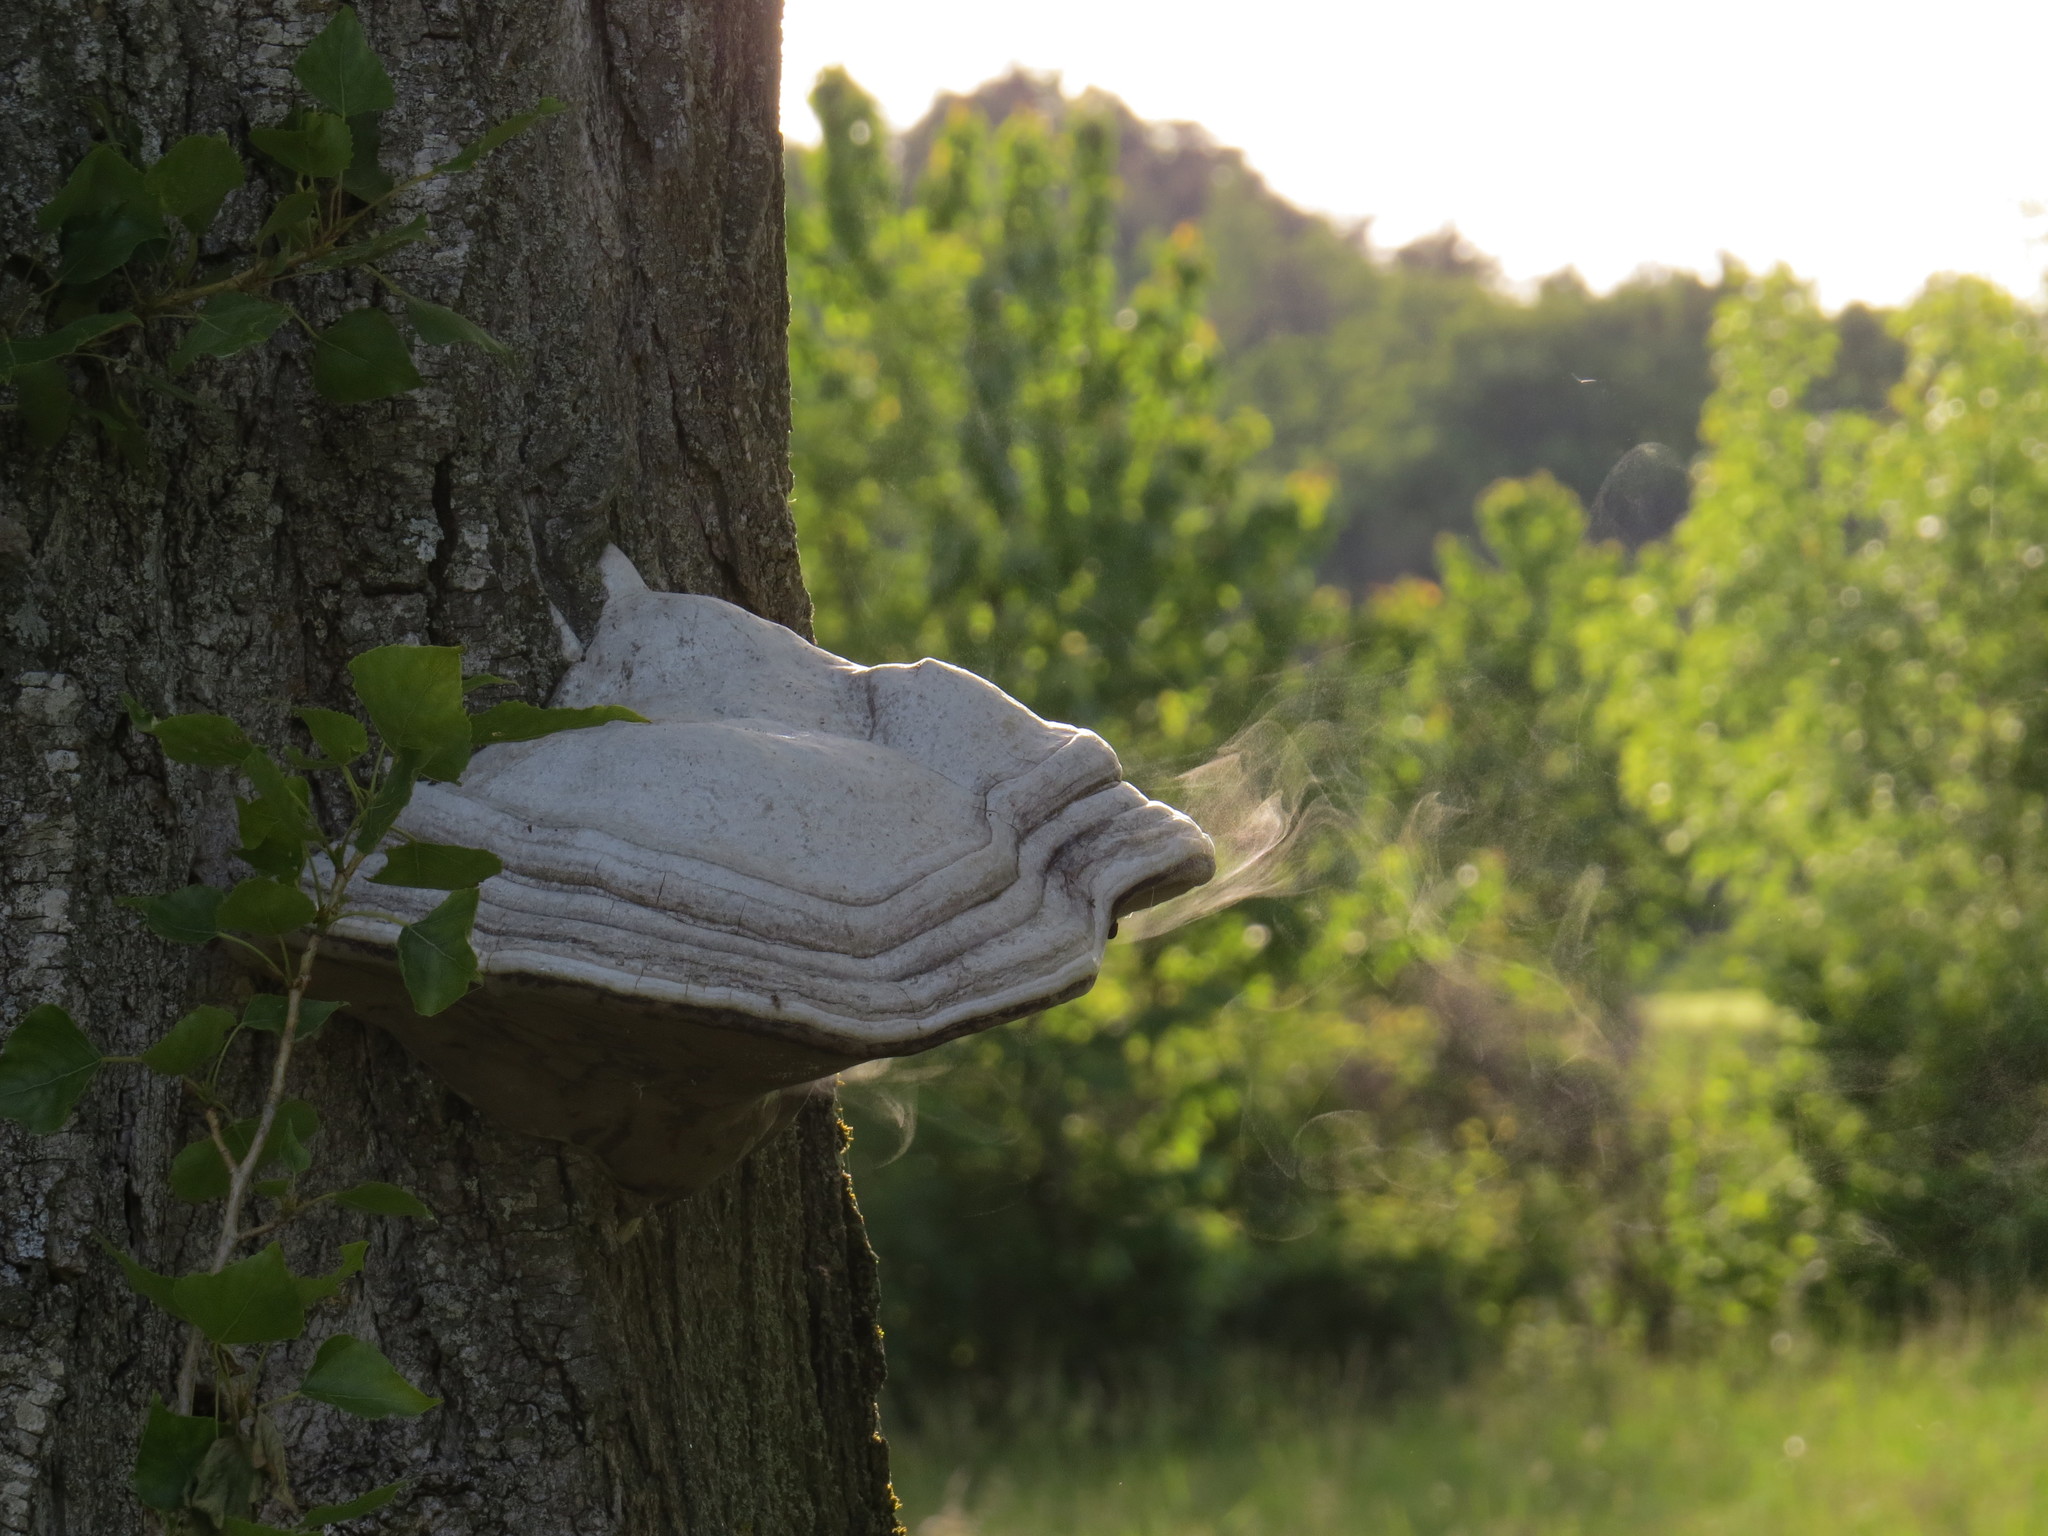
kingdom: Fungi
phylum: Basidiomycota
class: Agaricomycetes
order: Polyporales
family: Polyporaceae
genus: Fomes
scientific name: Fomes fomentarius
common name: Hoof fungus
